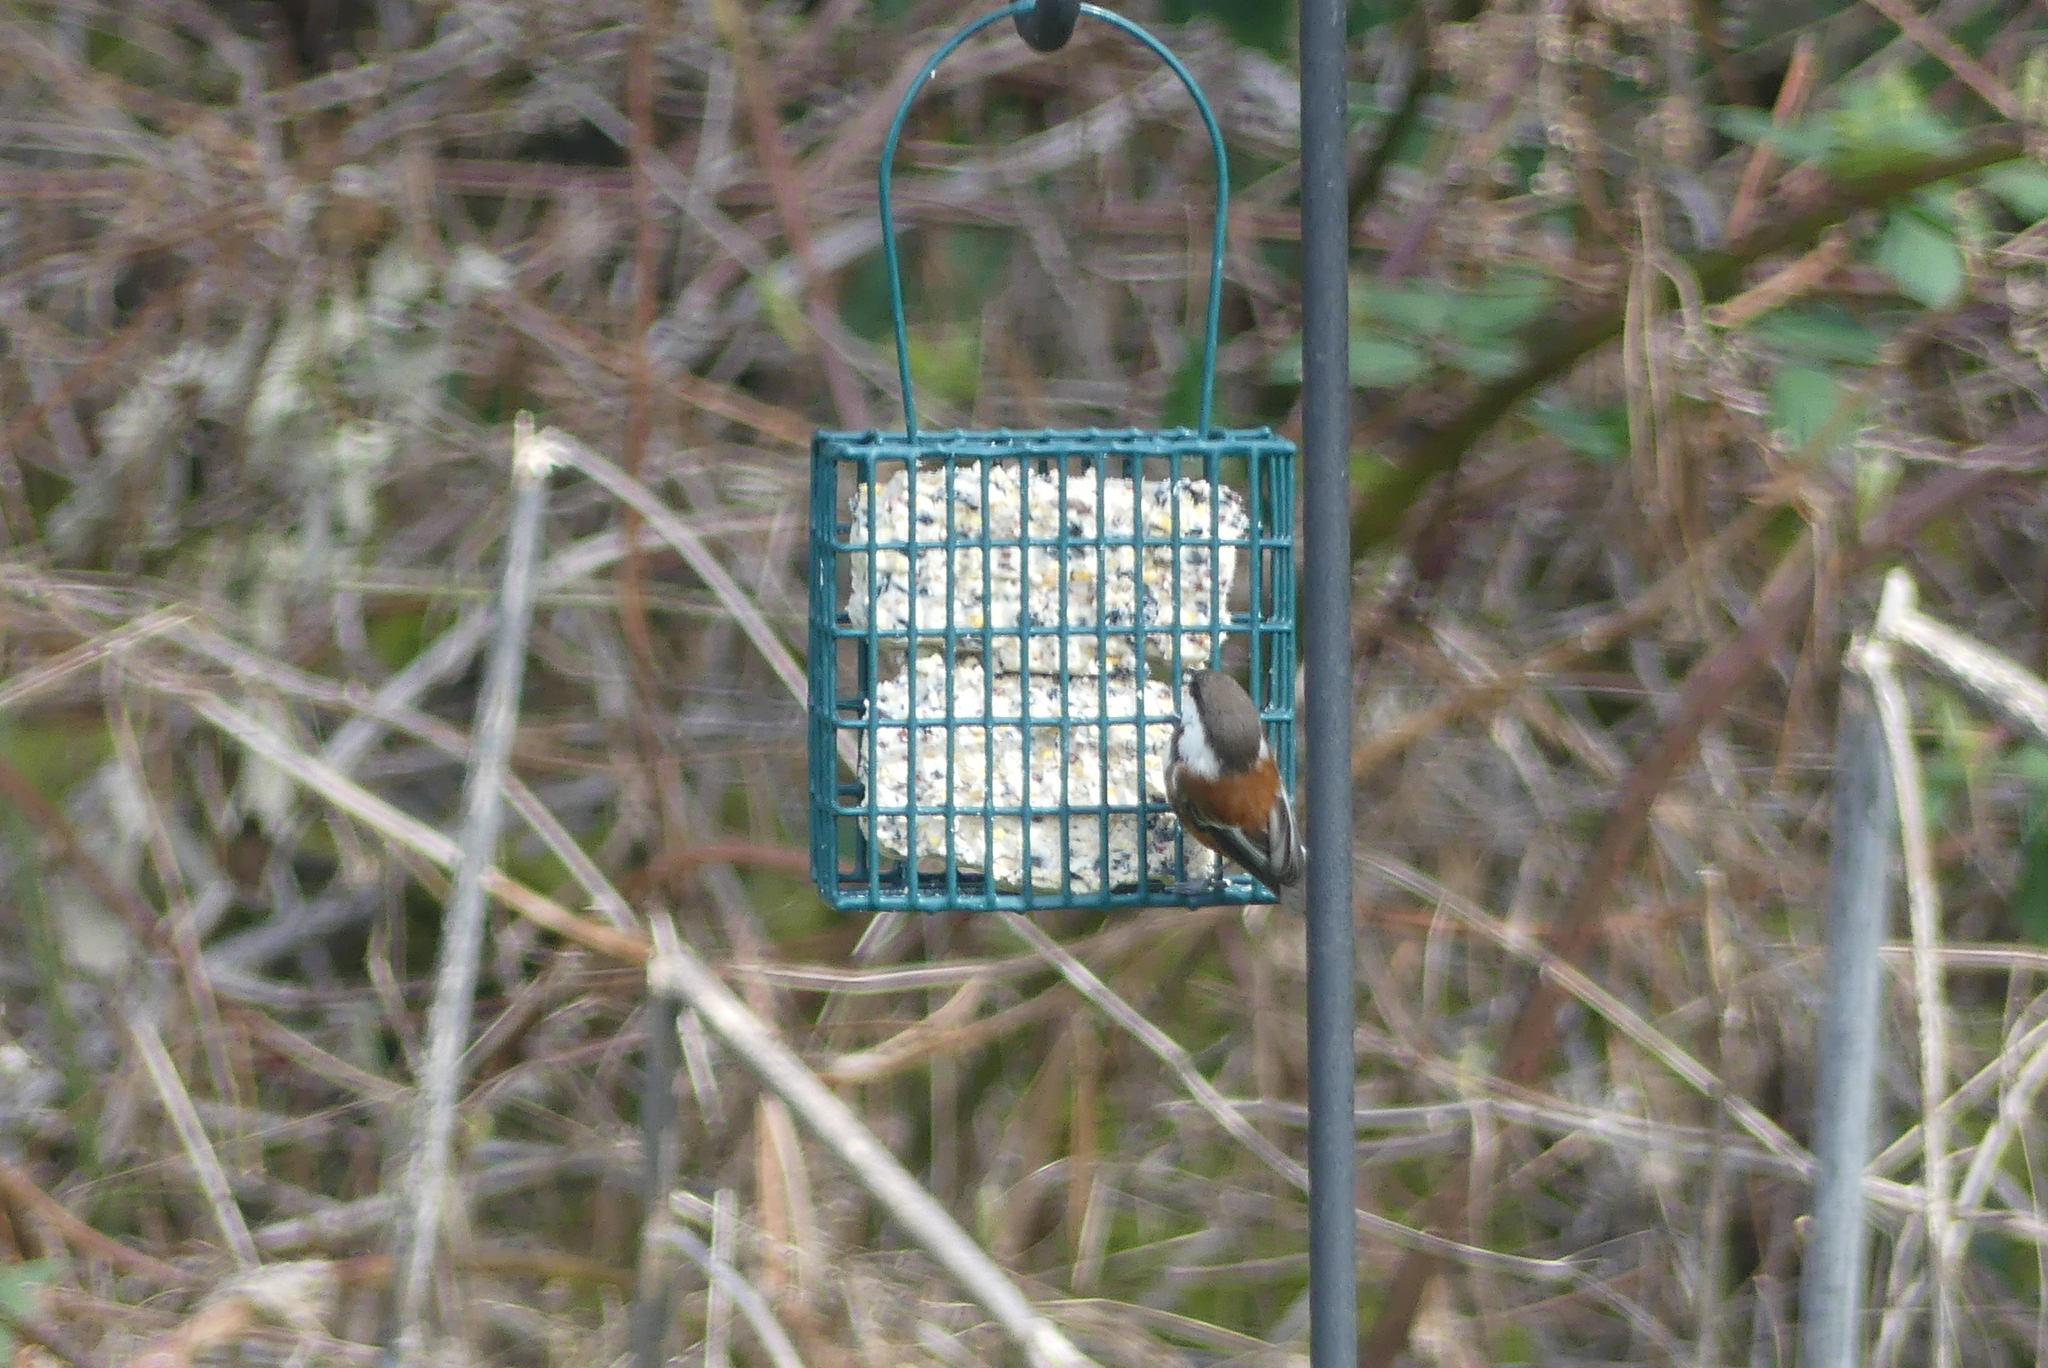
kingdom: Animalia
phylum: Chordata
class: Aves
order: Passeriformes
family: Paridae
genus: Poecile
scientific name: Poecile rufescens
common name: Chestnut-backed chickadee
